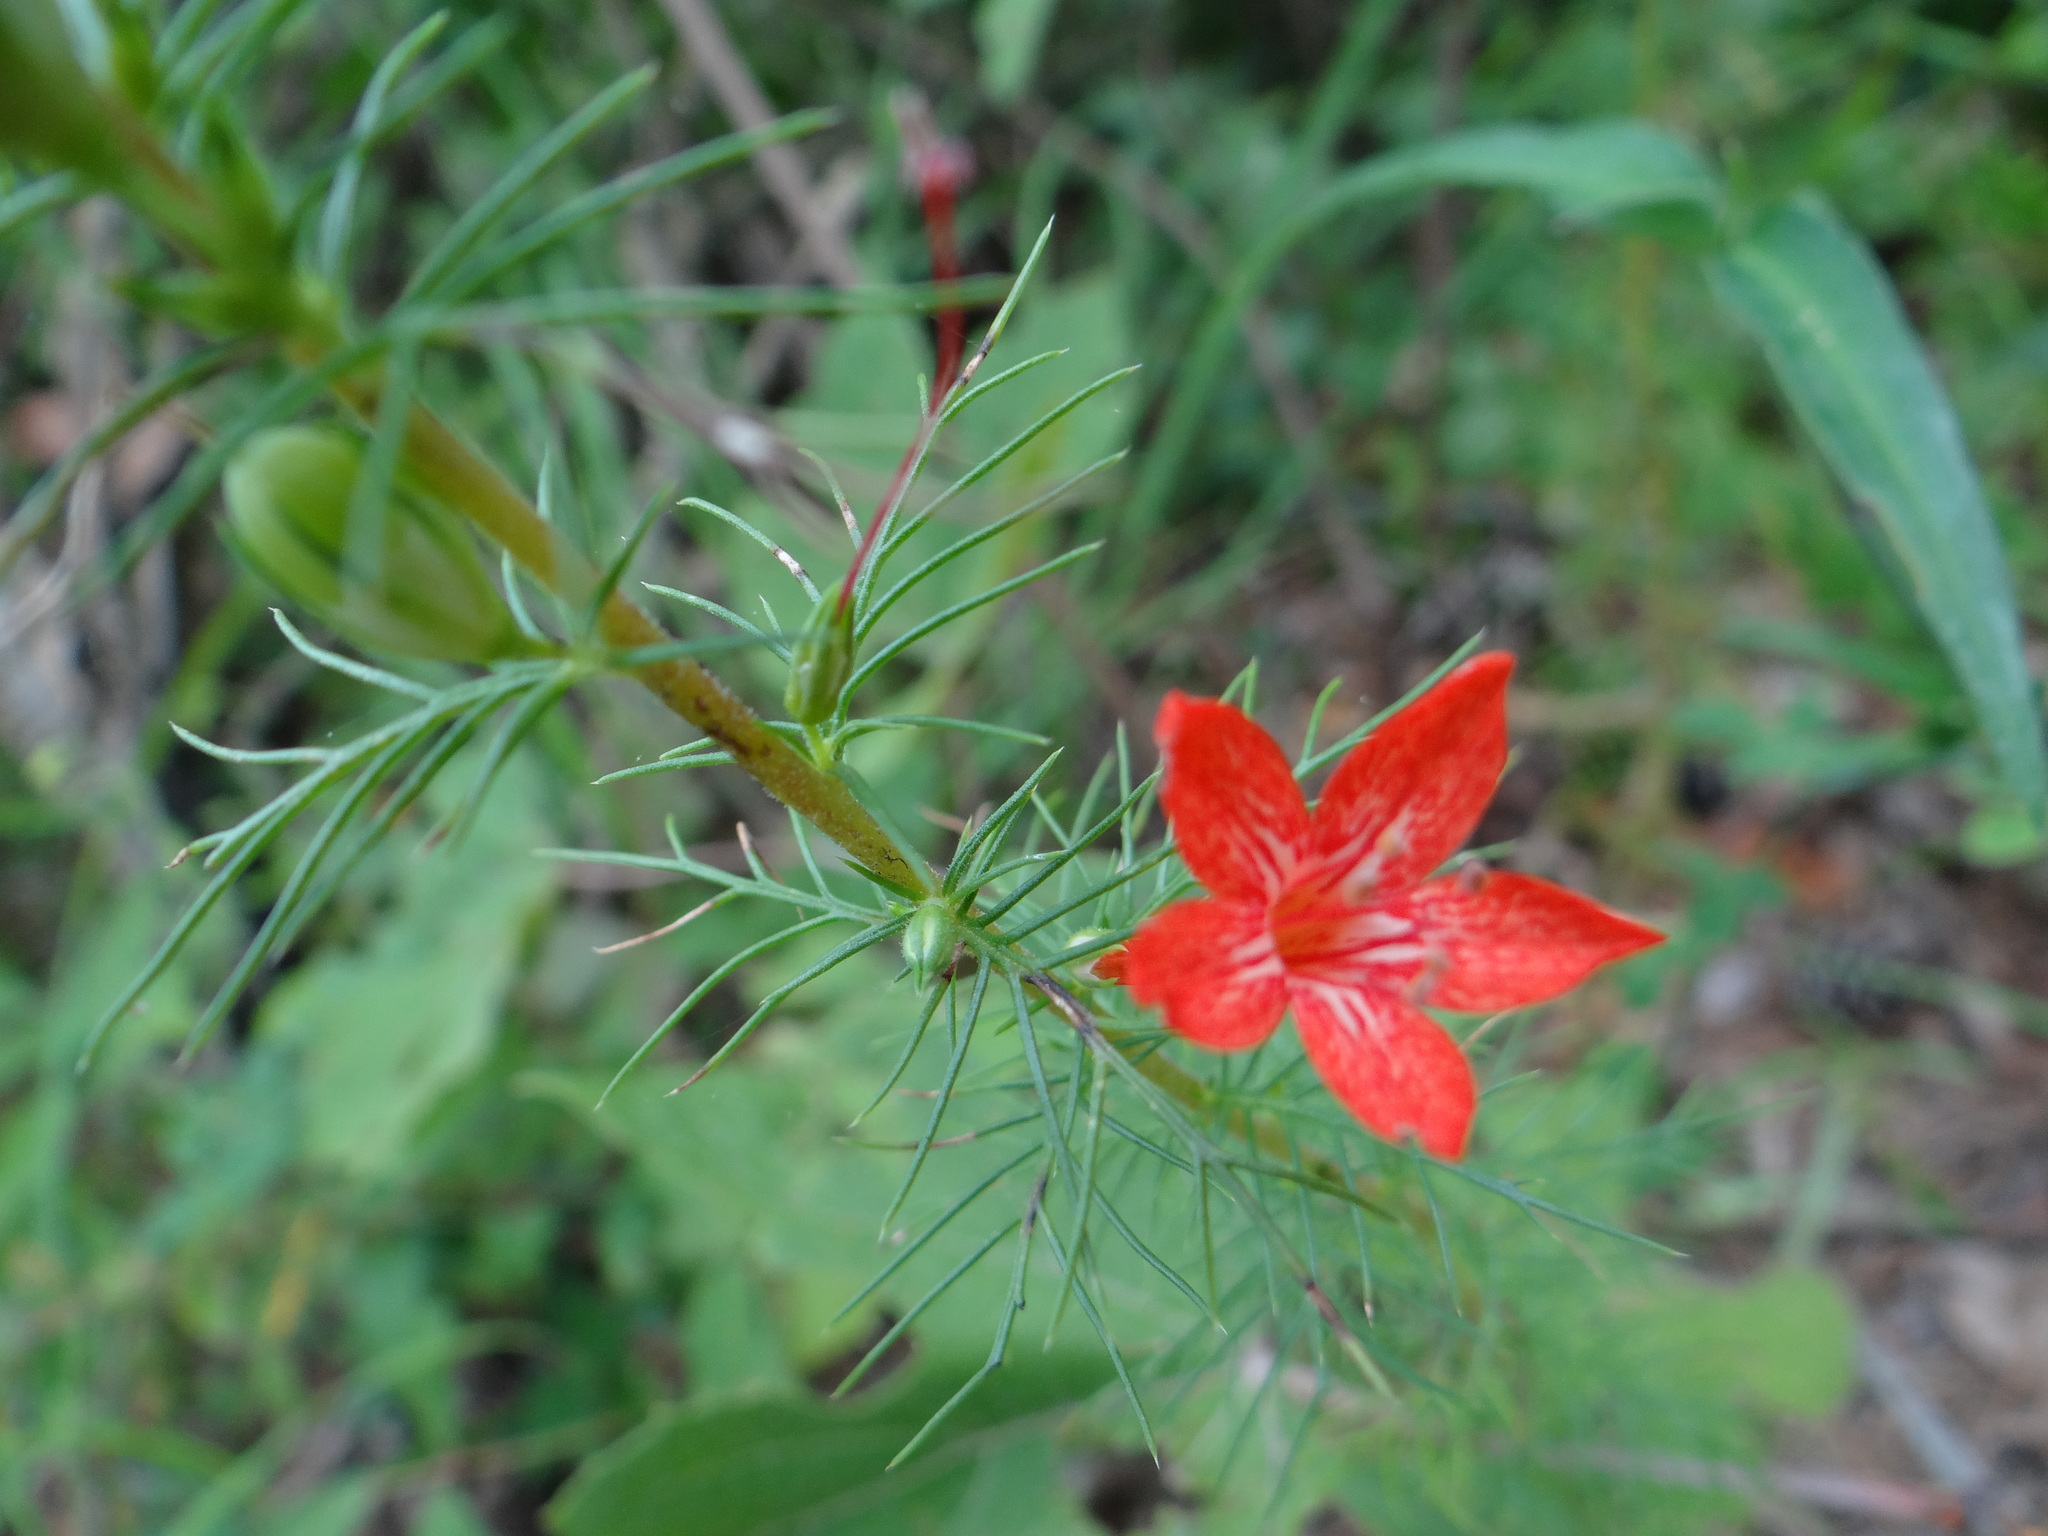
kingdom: Plantae
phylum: Tracheophyta
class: Magnoliopsida
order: Ericales
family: Polemoniaceae
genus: Ipomopsis
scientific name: Ipomopsis rubra
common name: Skyrocket
